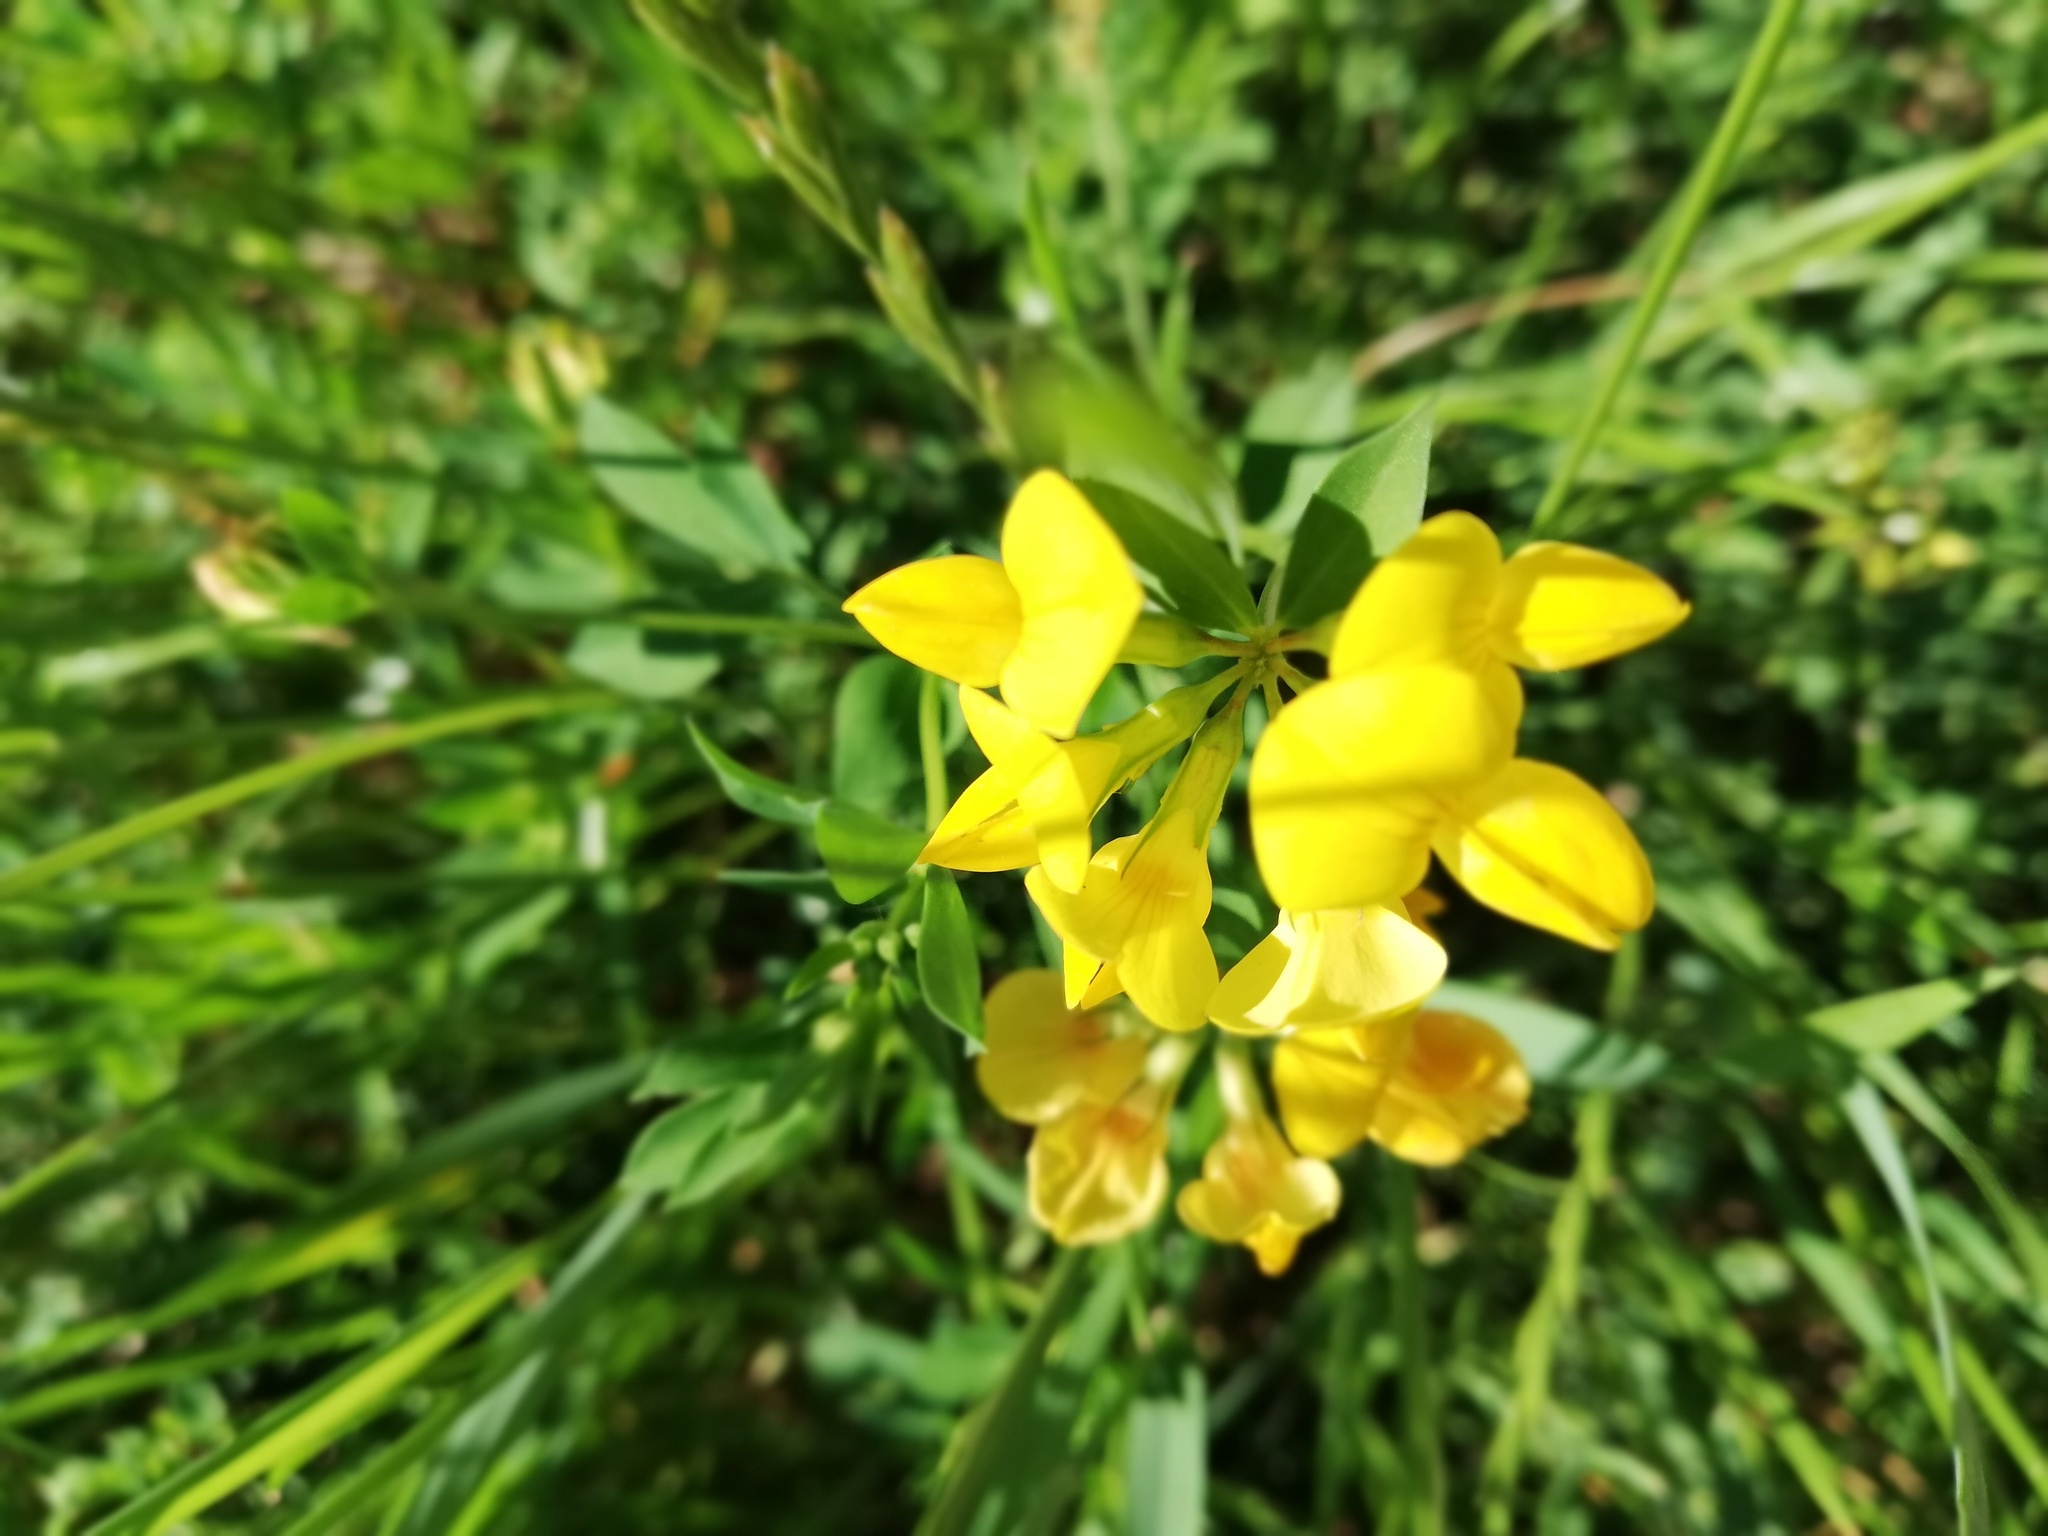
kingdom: Plantae
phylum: Tracheophyta
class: Magnoliopsida
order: Fabales
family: Fabaceae
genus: Lotus
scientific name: Lotus corniculatus
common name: Common bird's-foot-trefoil
